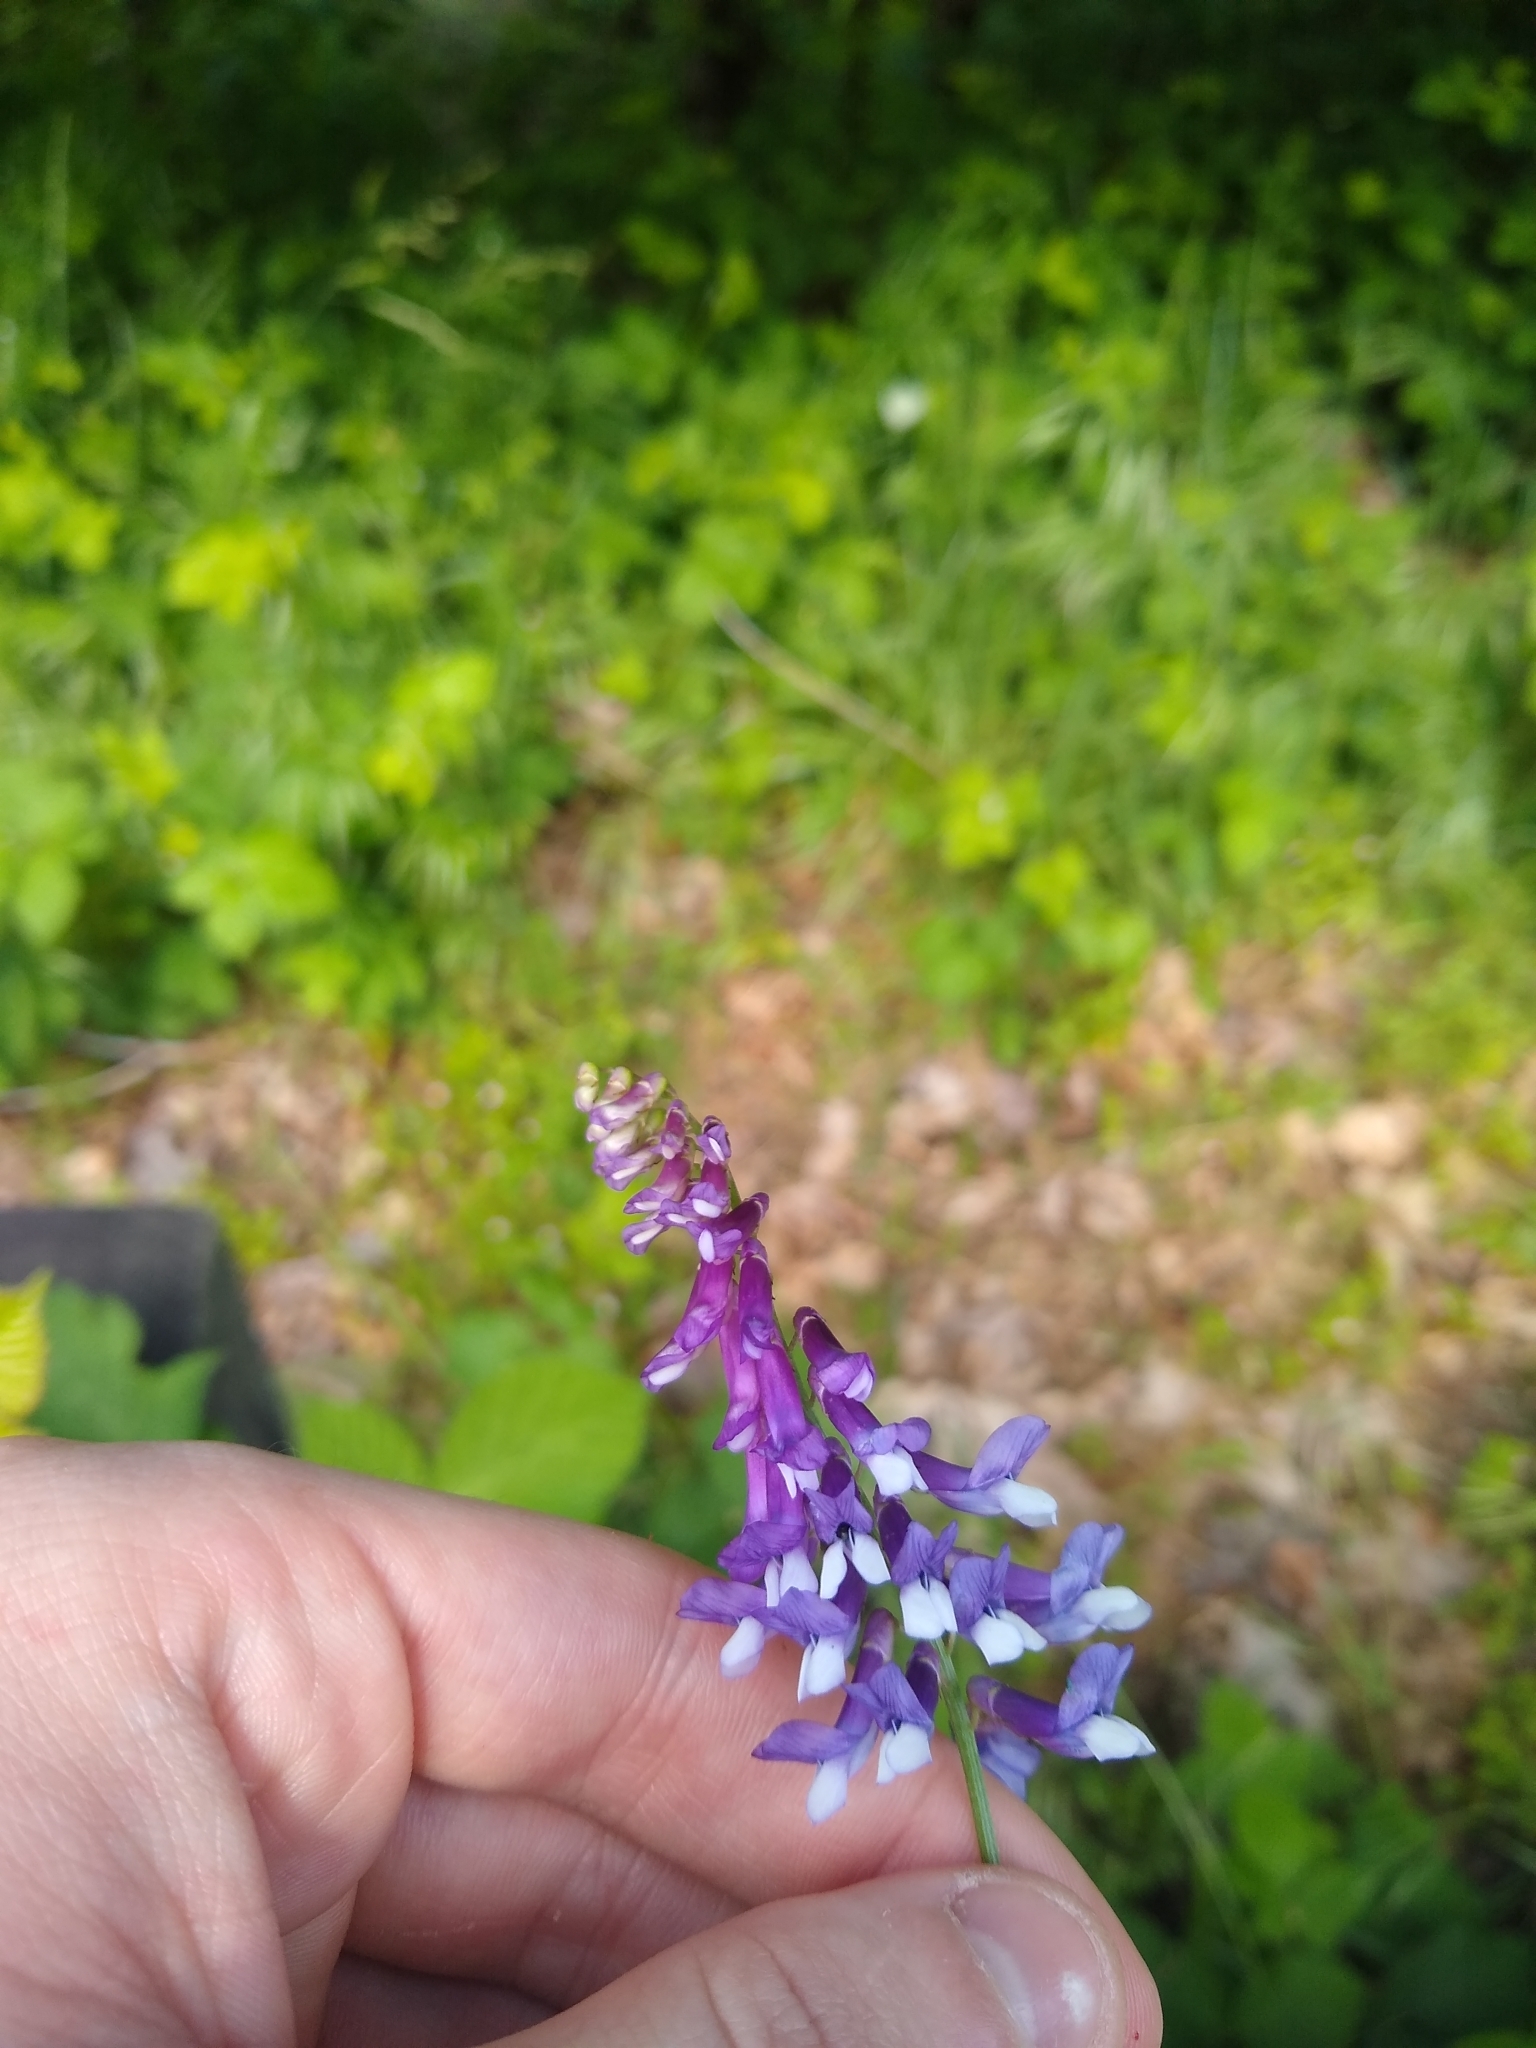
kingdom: Plantae
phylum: Tracheophyta
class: Magnoliopsida
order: Fabales
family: Fabaceae
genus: Vicia
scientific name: Vicia villosa
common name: Fodder vetch
